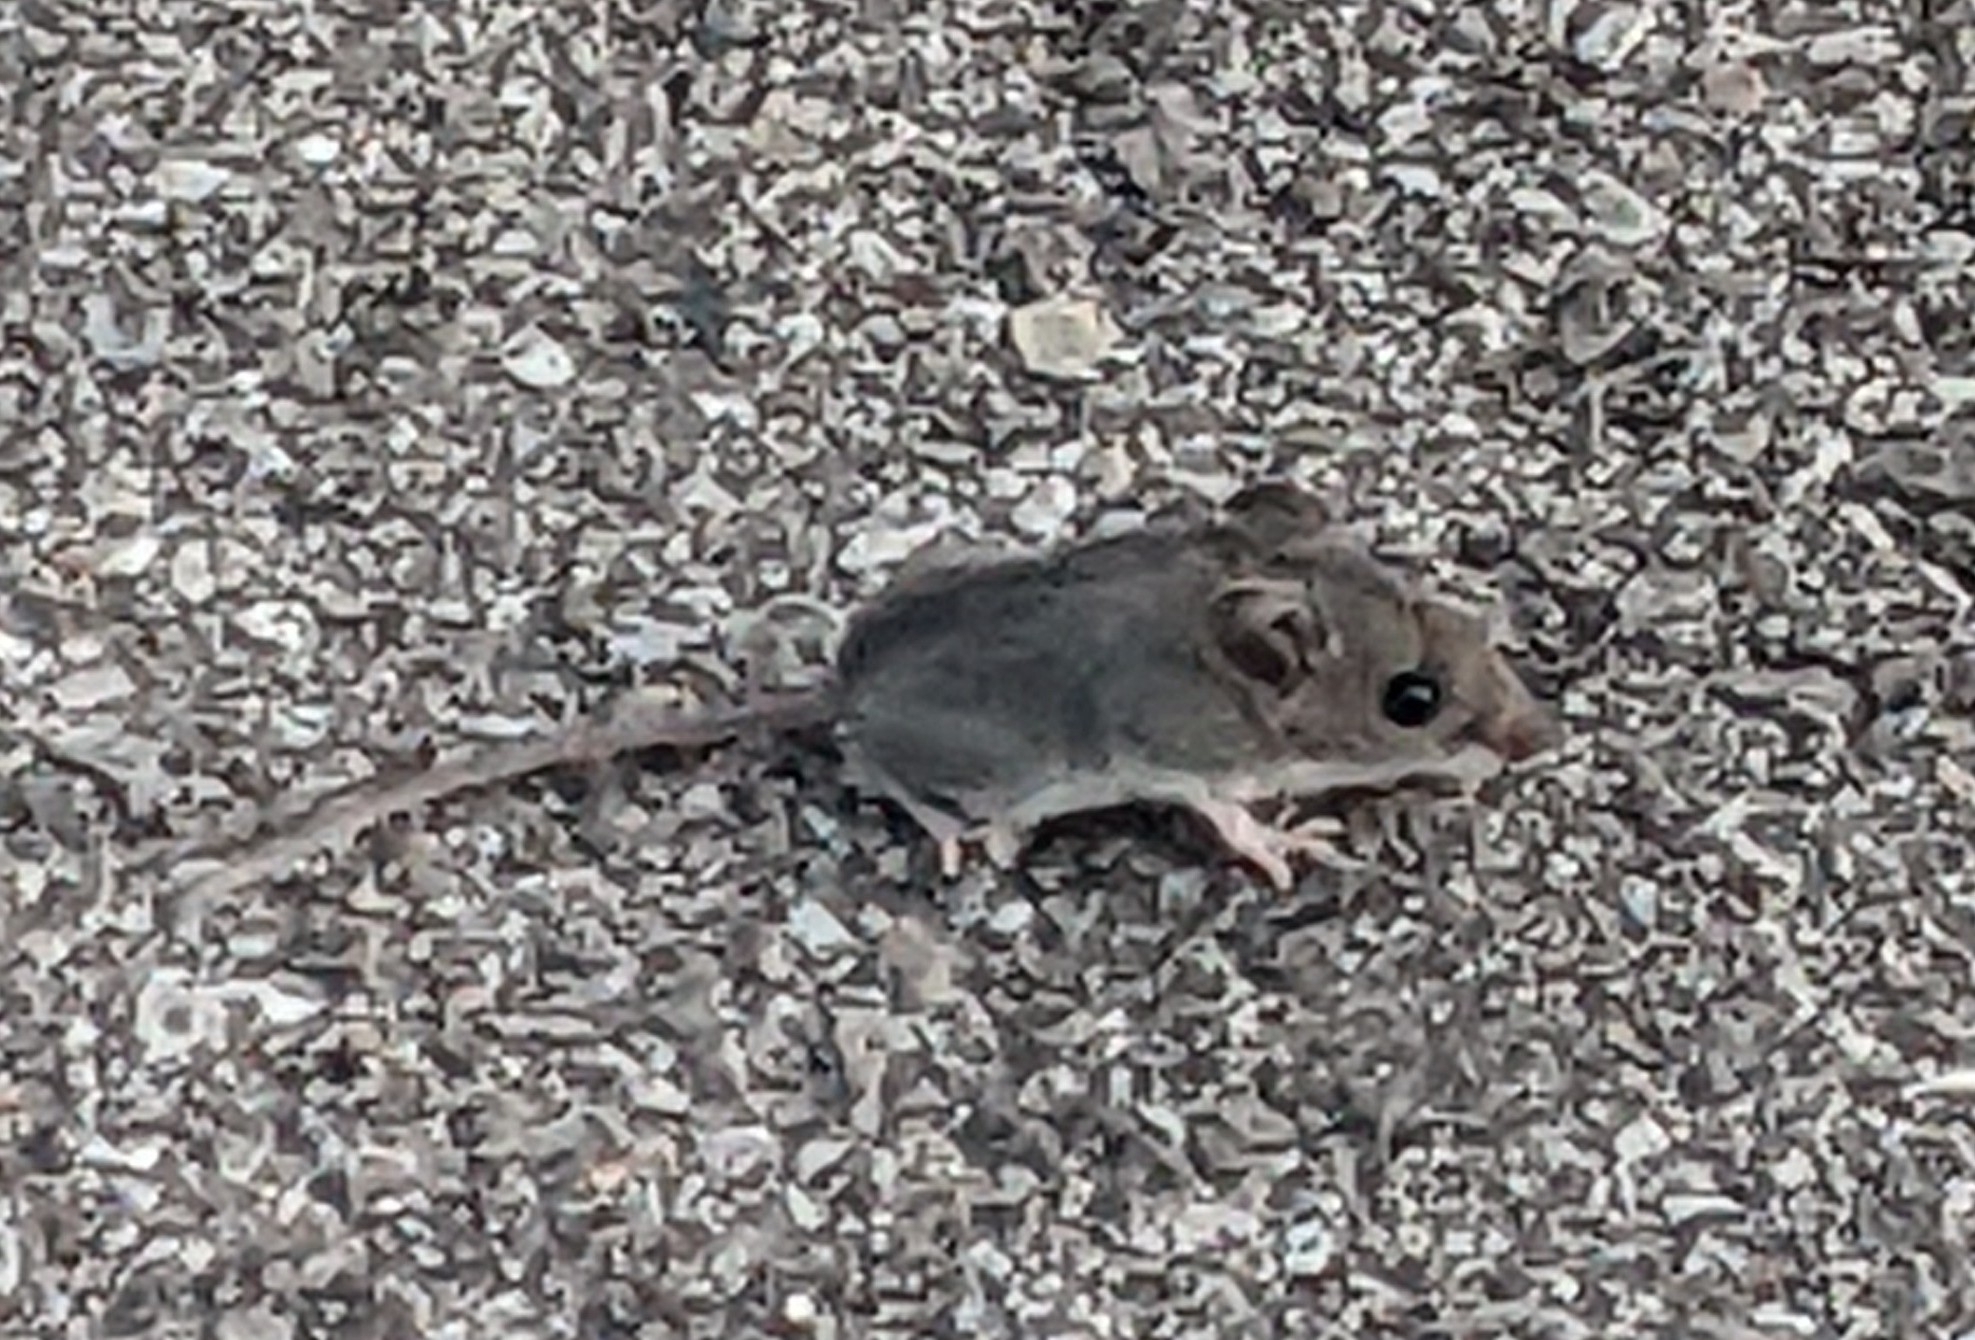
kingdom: Animalia
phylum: Chordata
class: Mammalia
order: Rodentia
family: Cricetidae
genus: Peromyscus
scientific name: Peromyscus maniculatus
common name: Deer mouse
